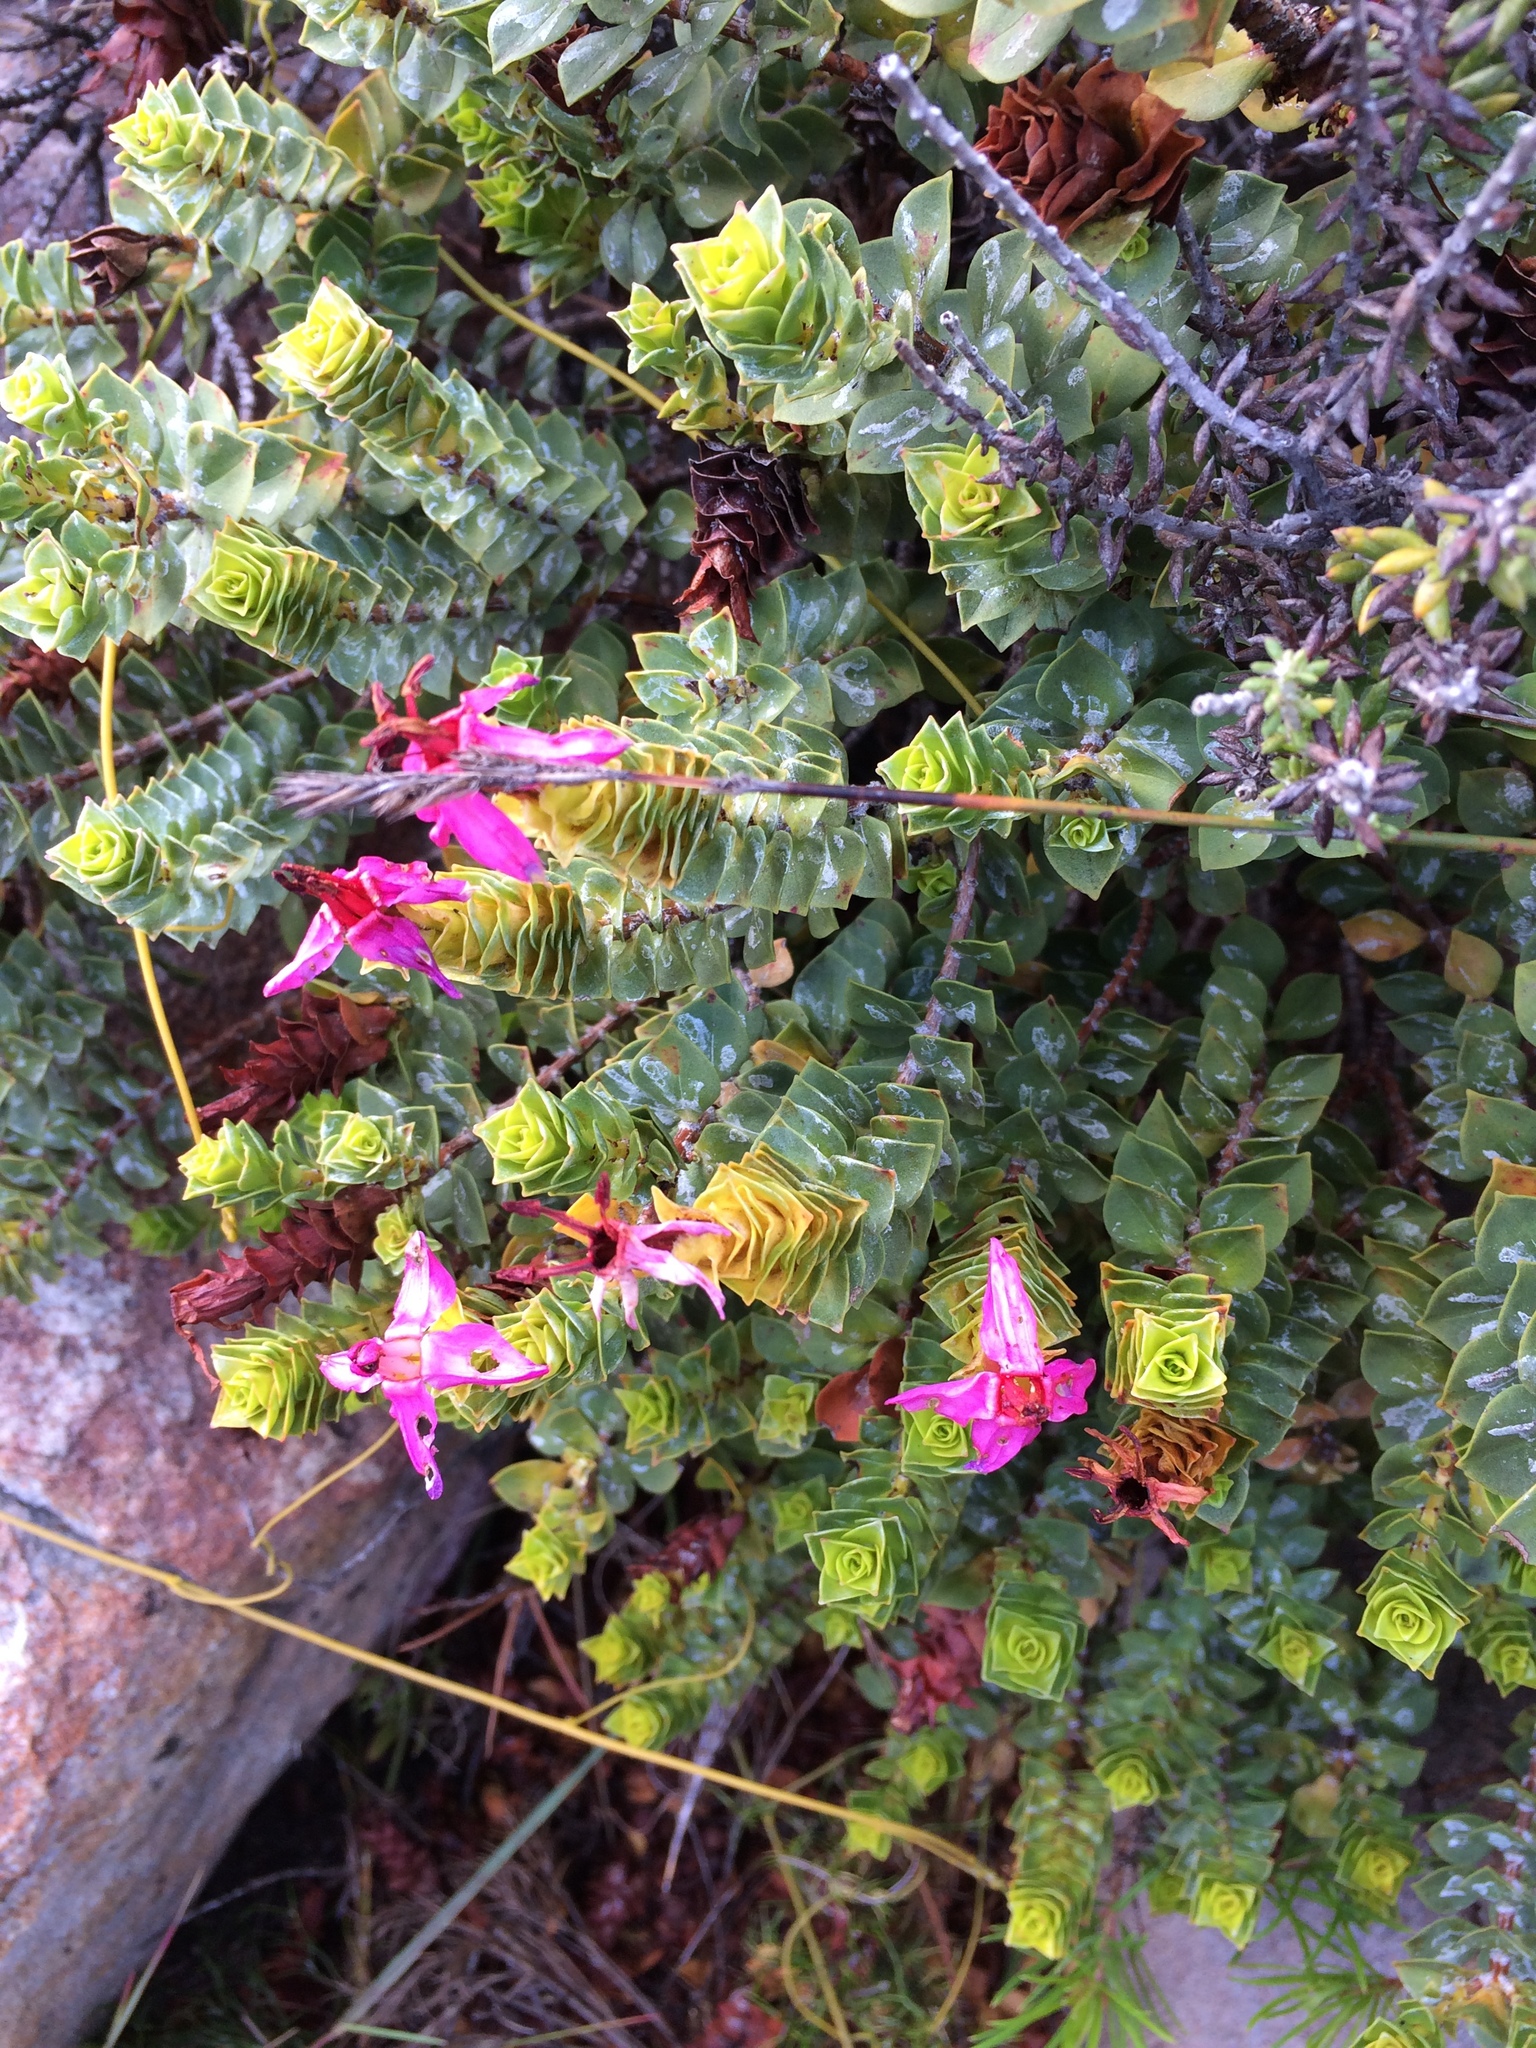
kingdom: Plantae
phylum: Tracheophyta
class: Magnoliopsida
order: Myrtales
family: Penaeaceae
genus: Saltera
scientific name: Saltera sarcocolla
